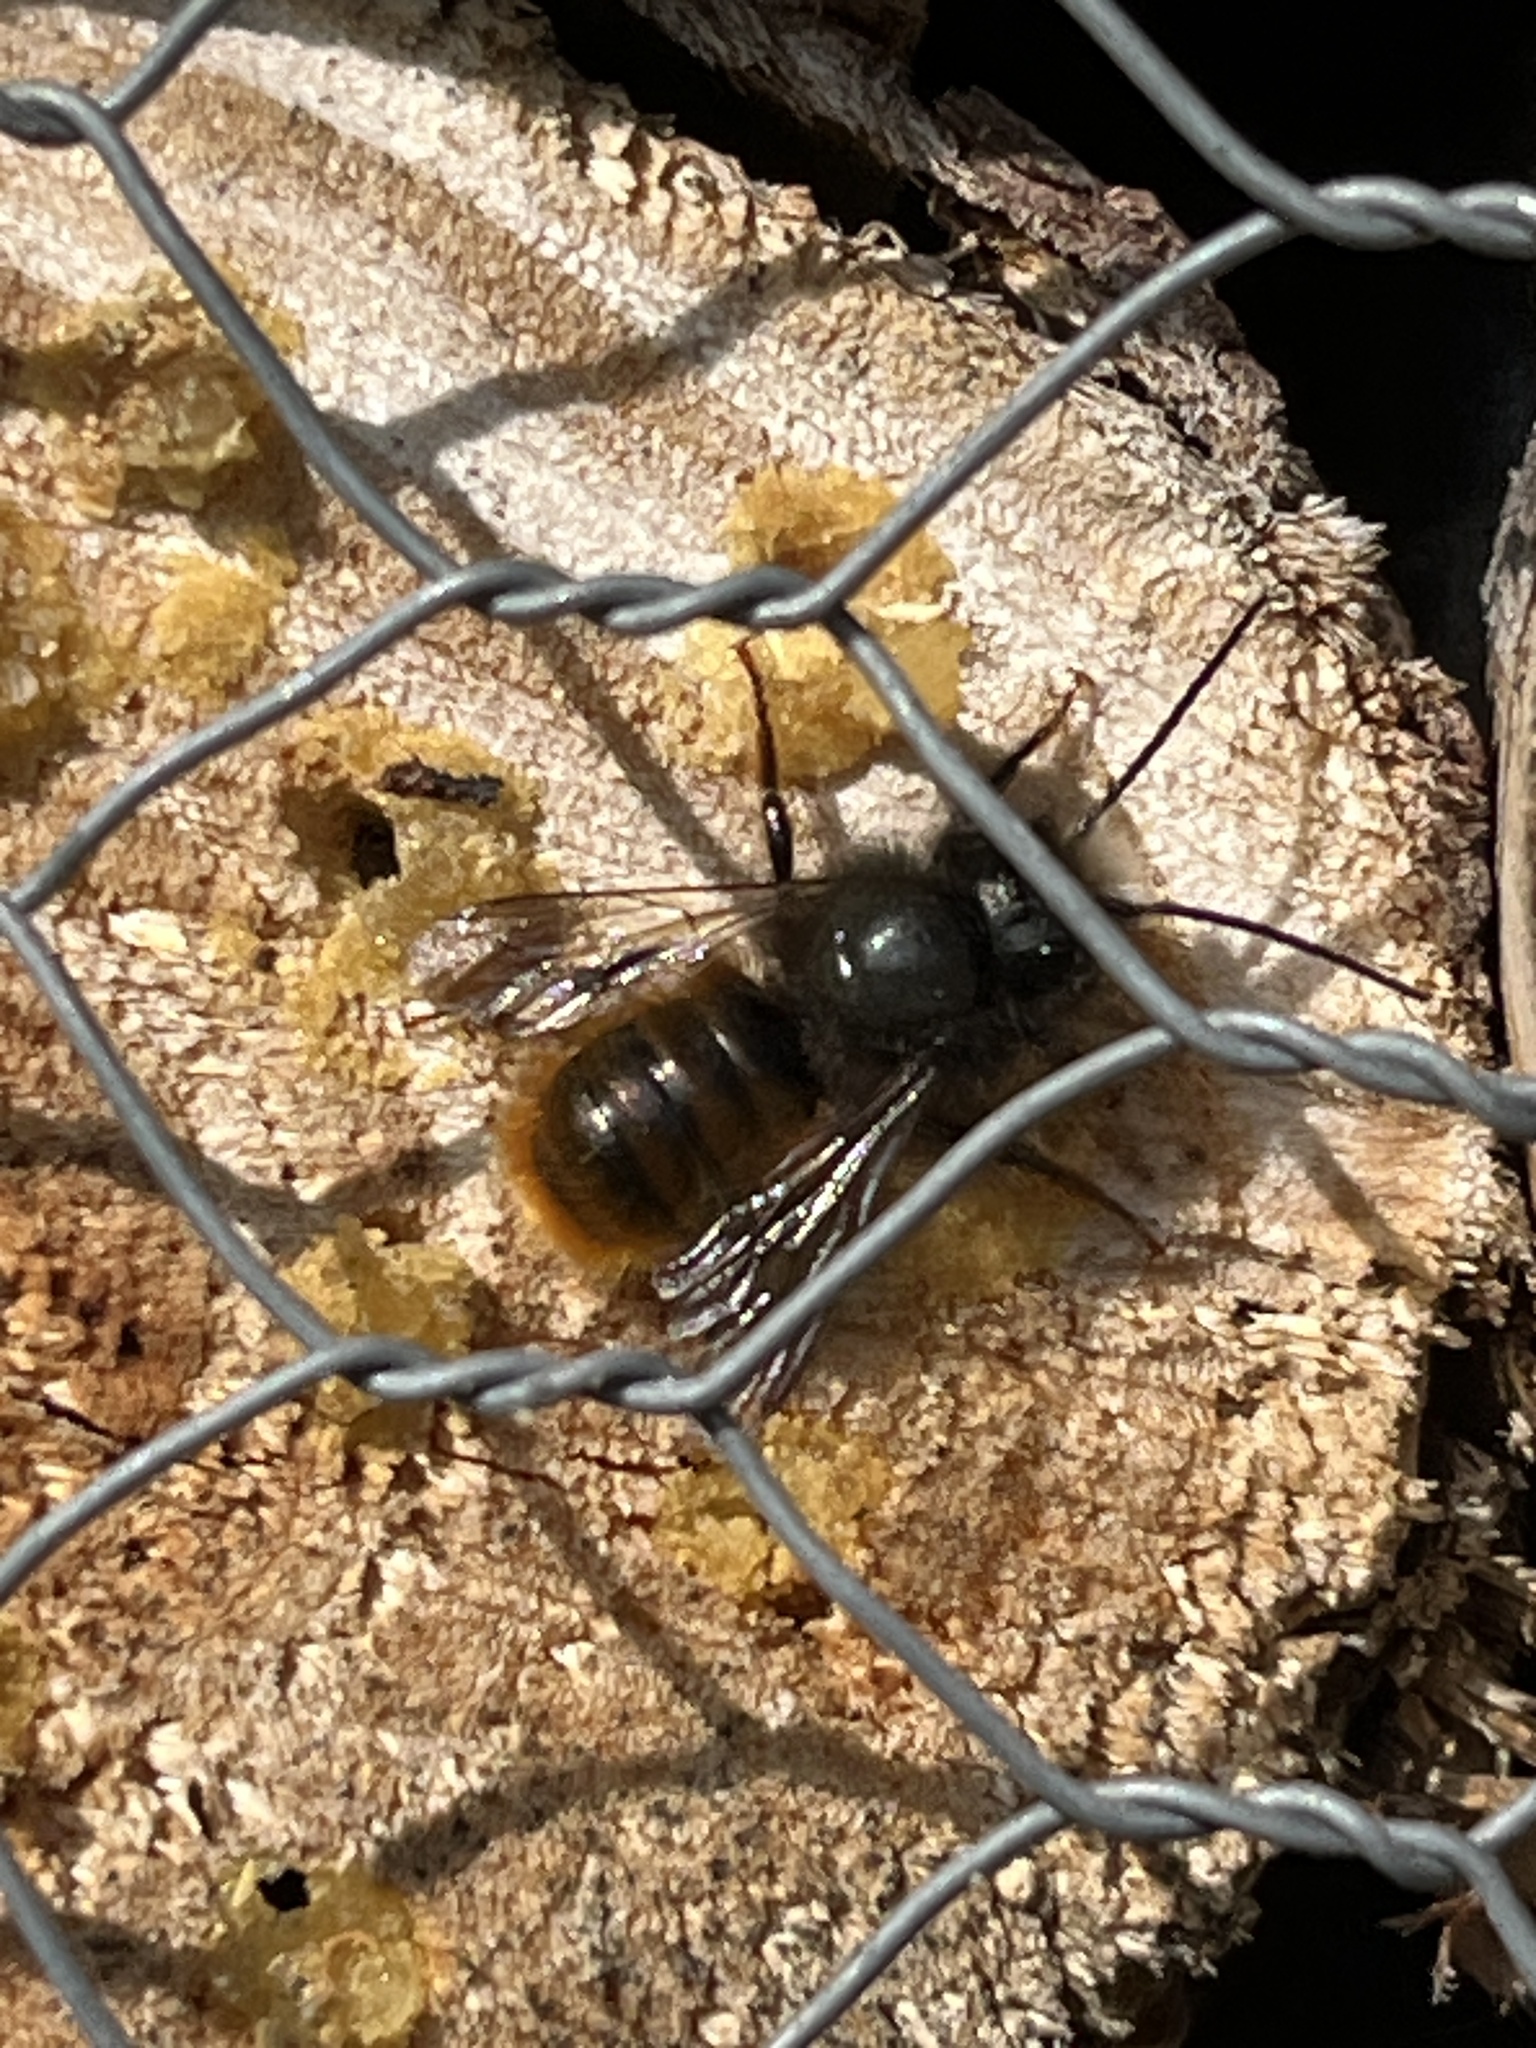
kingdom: Animalia
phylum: Arthropoda
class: Insecta
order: Hymenoptera
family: Megachilidae
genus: Osmia
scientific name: Osmia cornuta
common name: Mason bee
